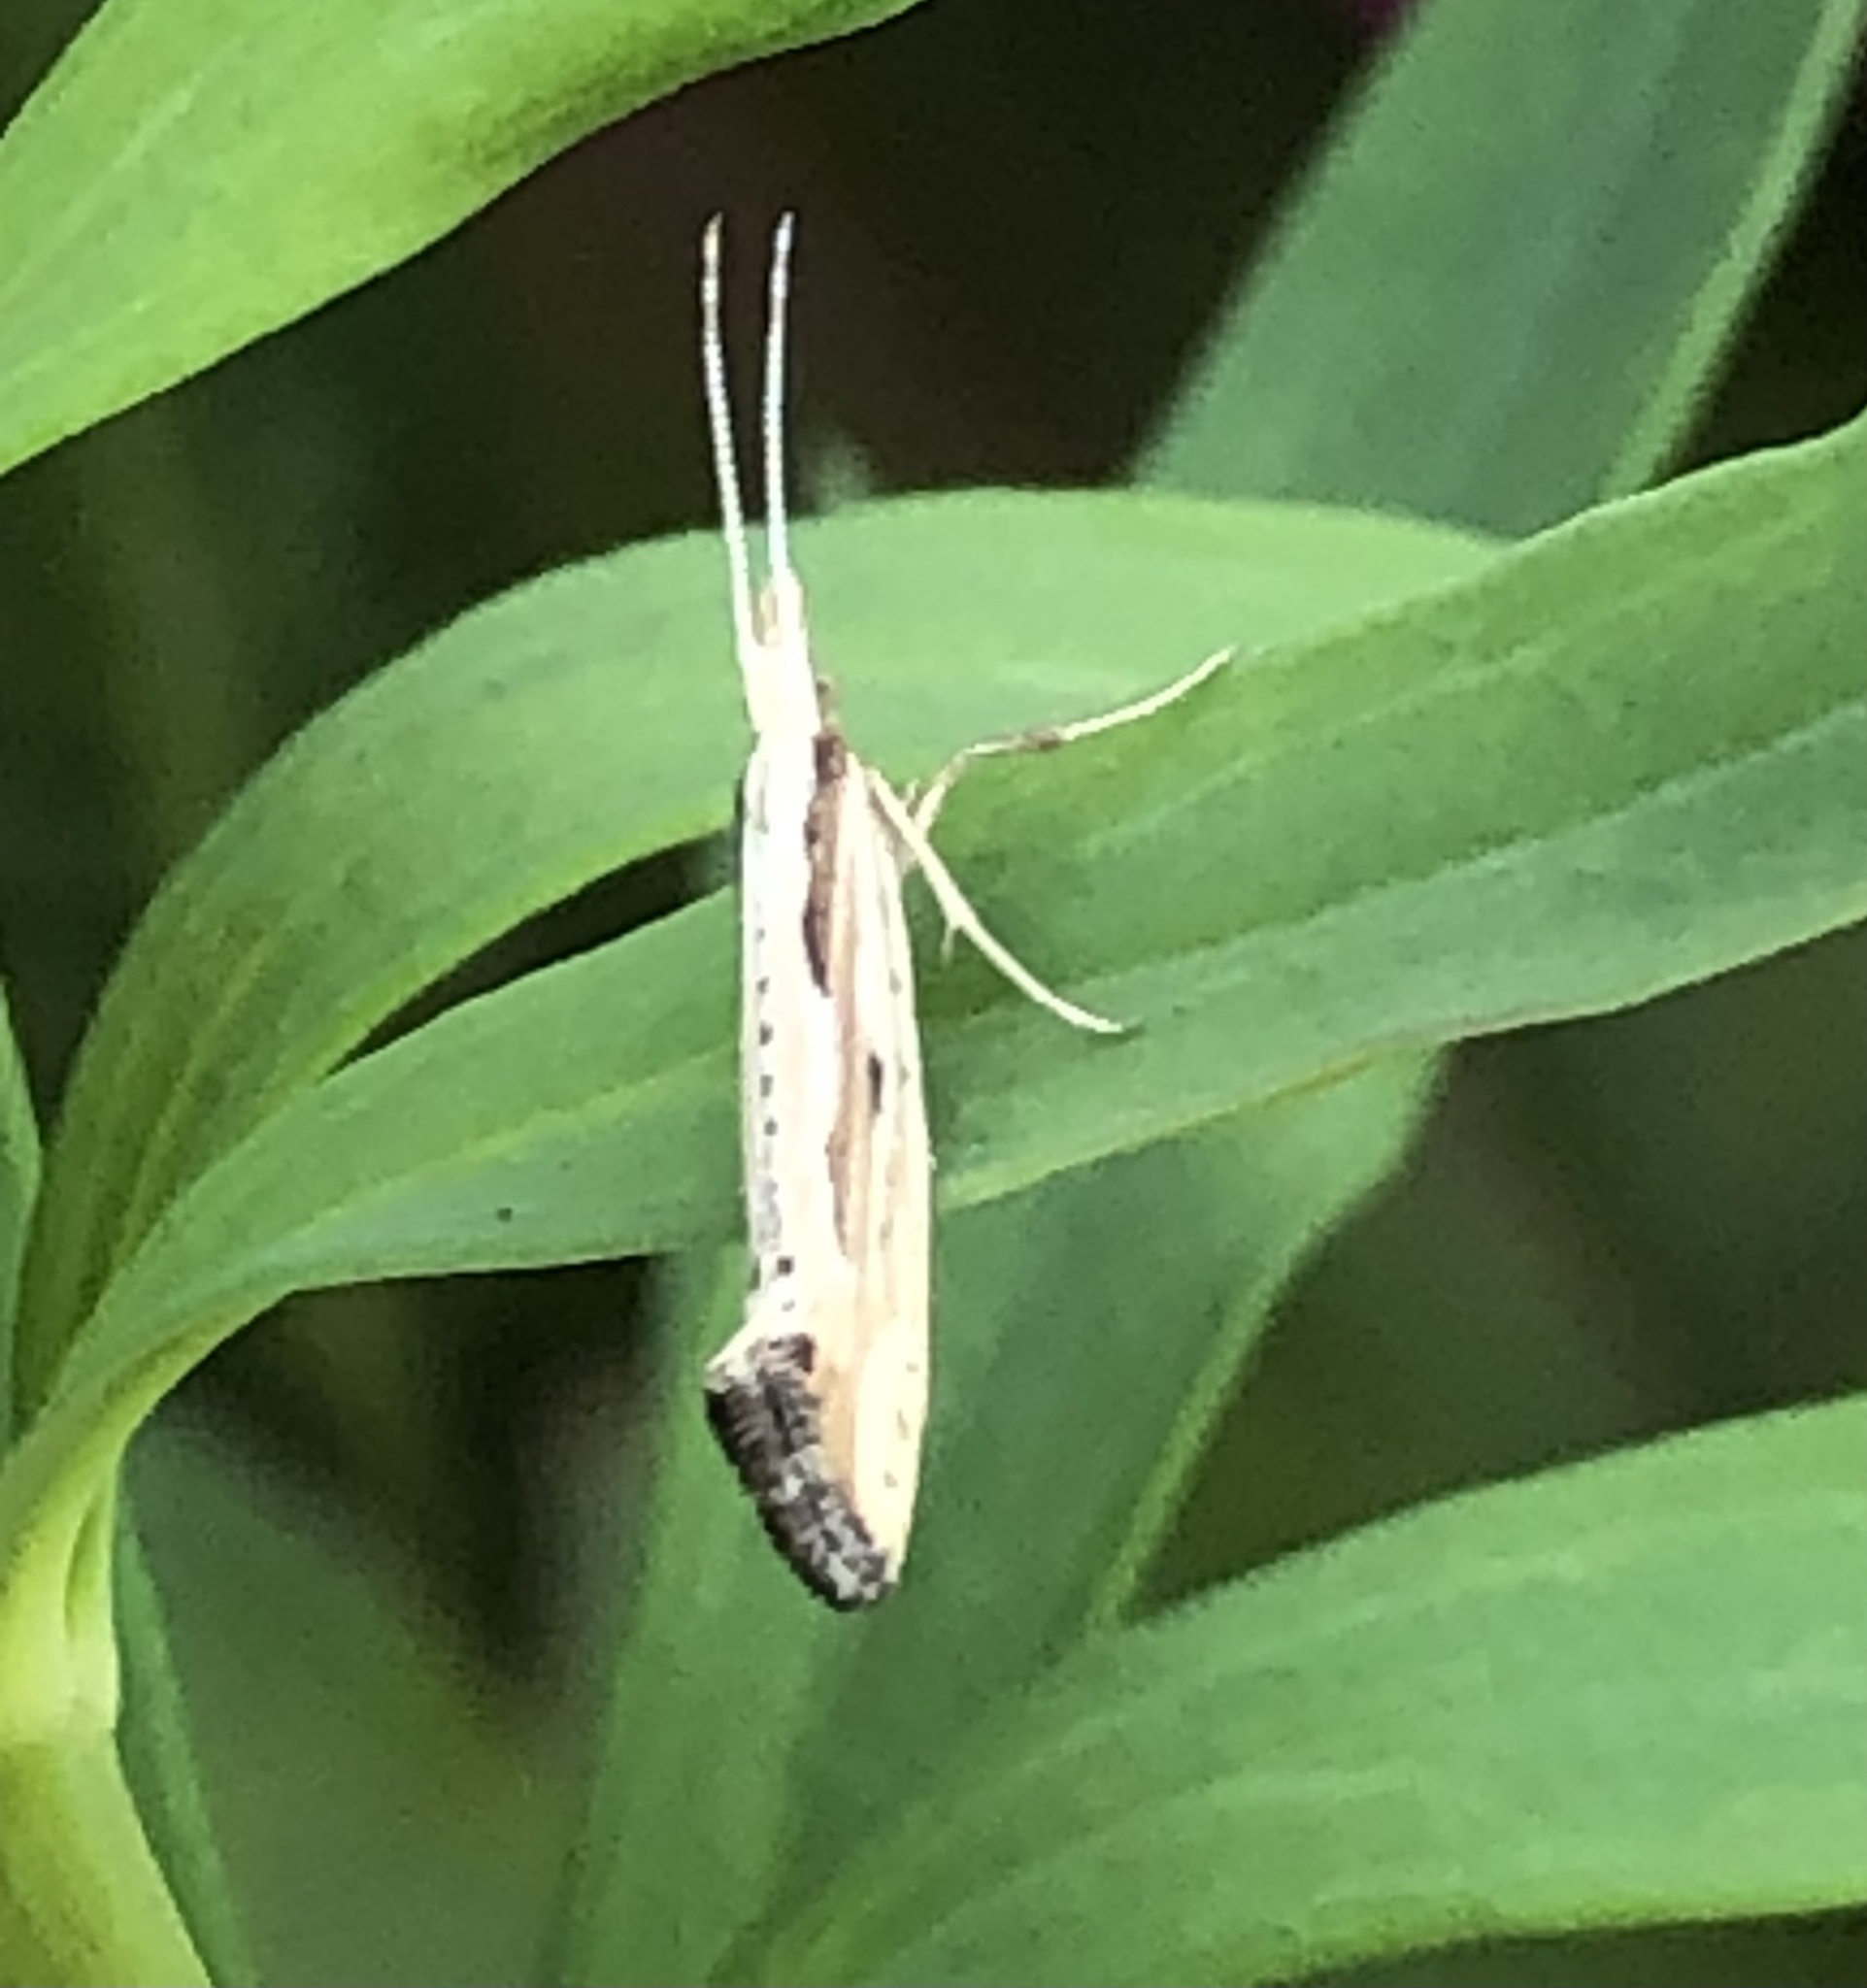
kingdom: Animalia
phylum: Arthropoda
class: Insecta
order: Lepidoptera
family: Plutellidae
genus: Plutella
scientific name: Plutella porrectella
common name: Dame's rocket moth
